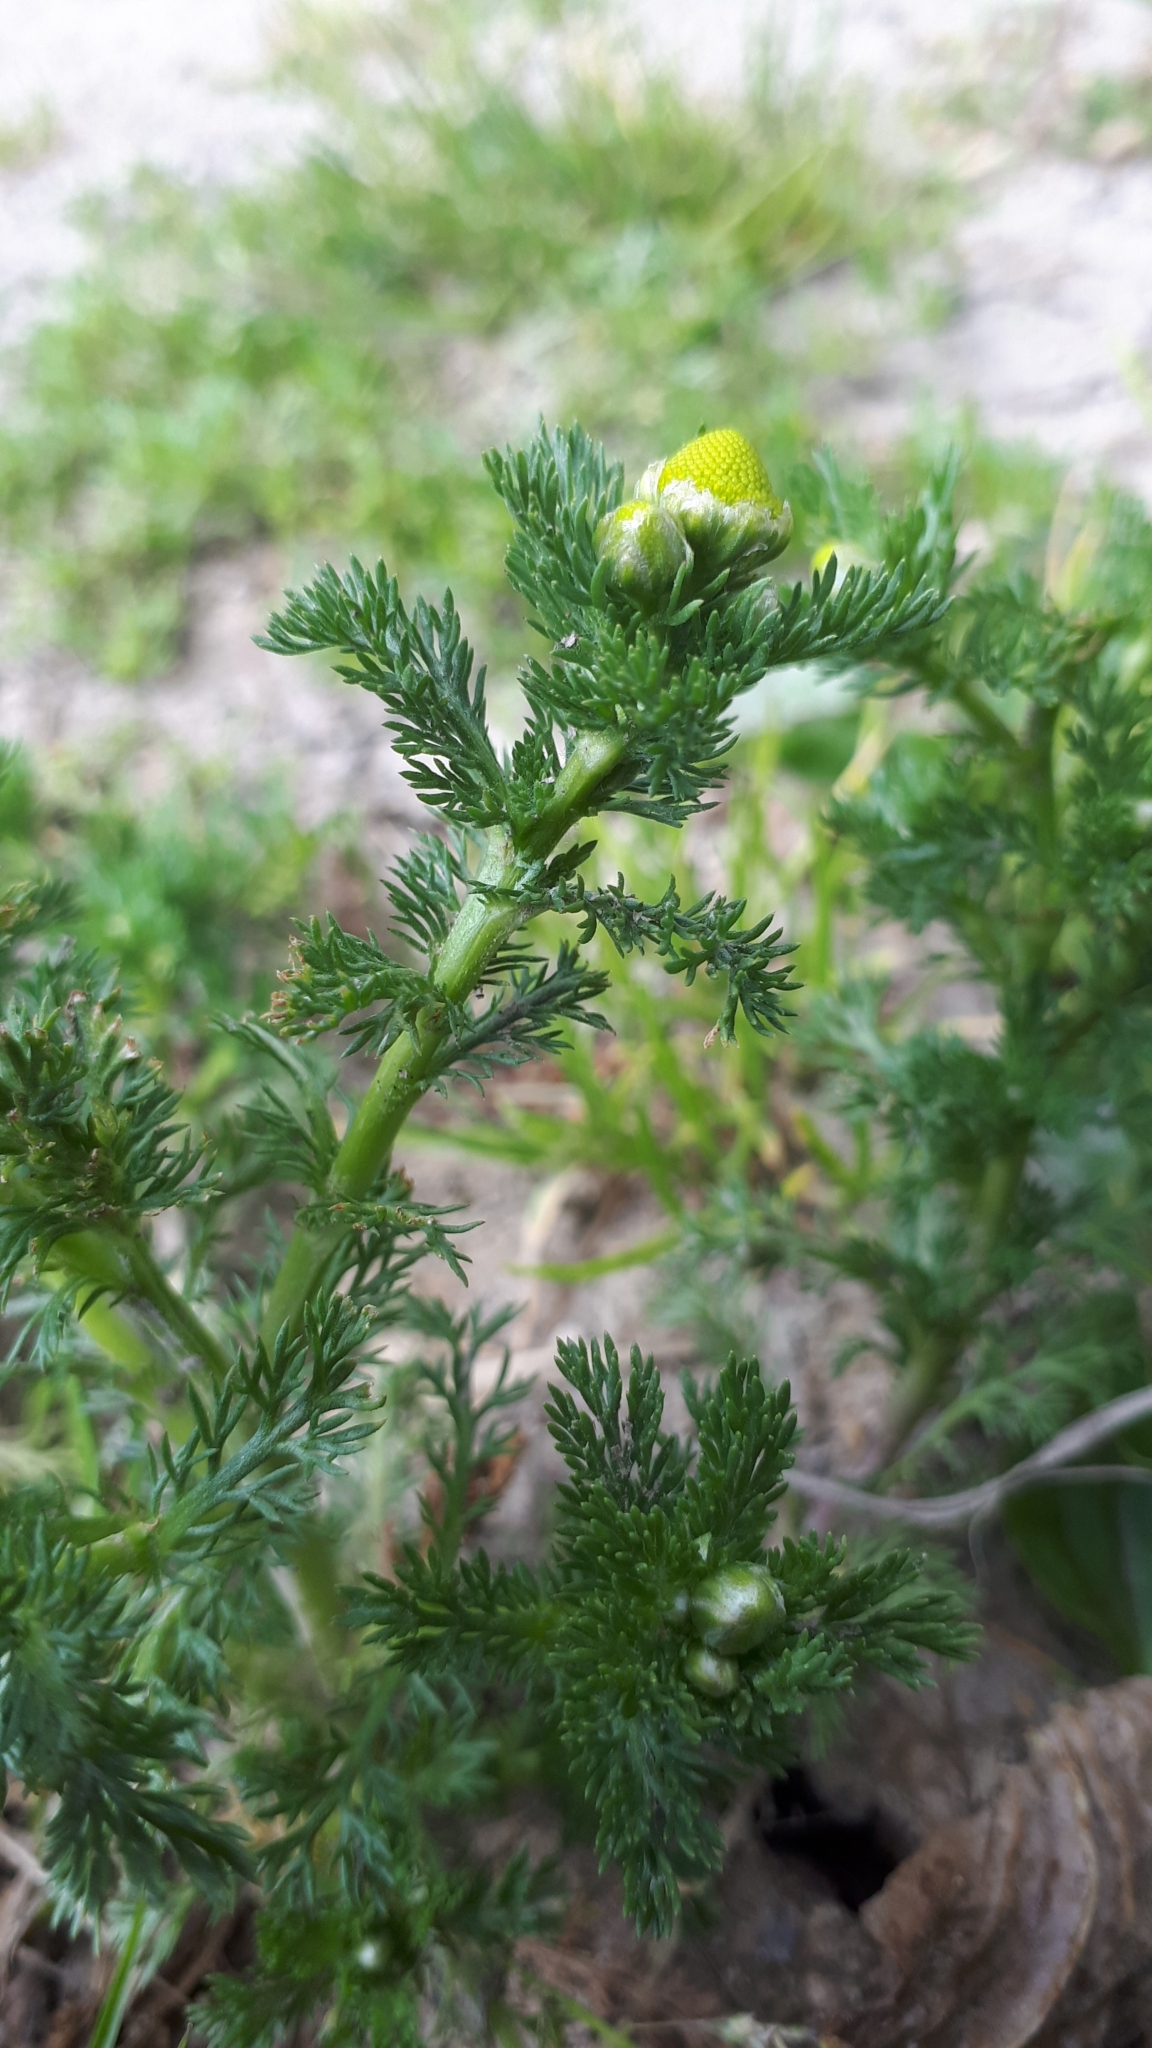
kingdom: Plantae
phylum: Tracheophyta
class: Magnoliopsida
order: Asterales
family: Asteraceae
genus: Matricaria
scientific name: Matricaria discoidea
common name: Disc mayweed
